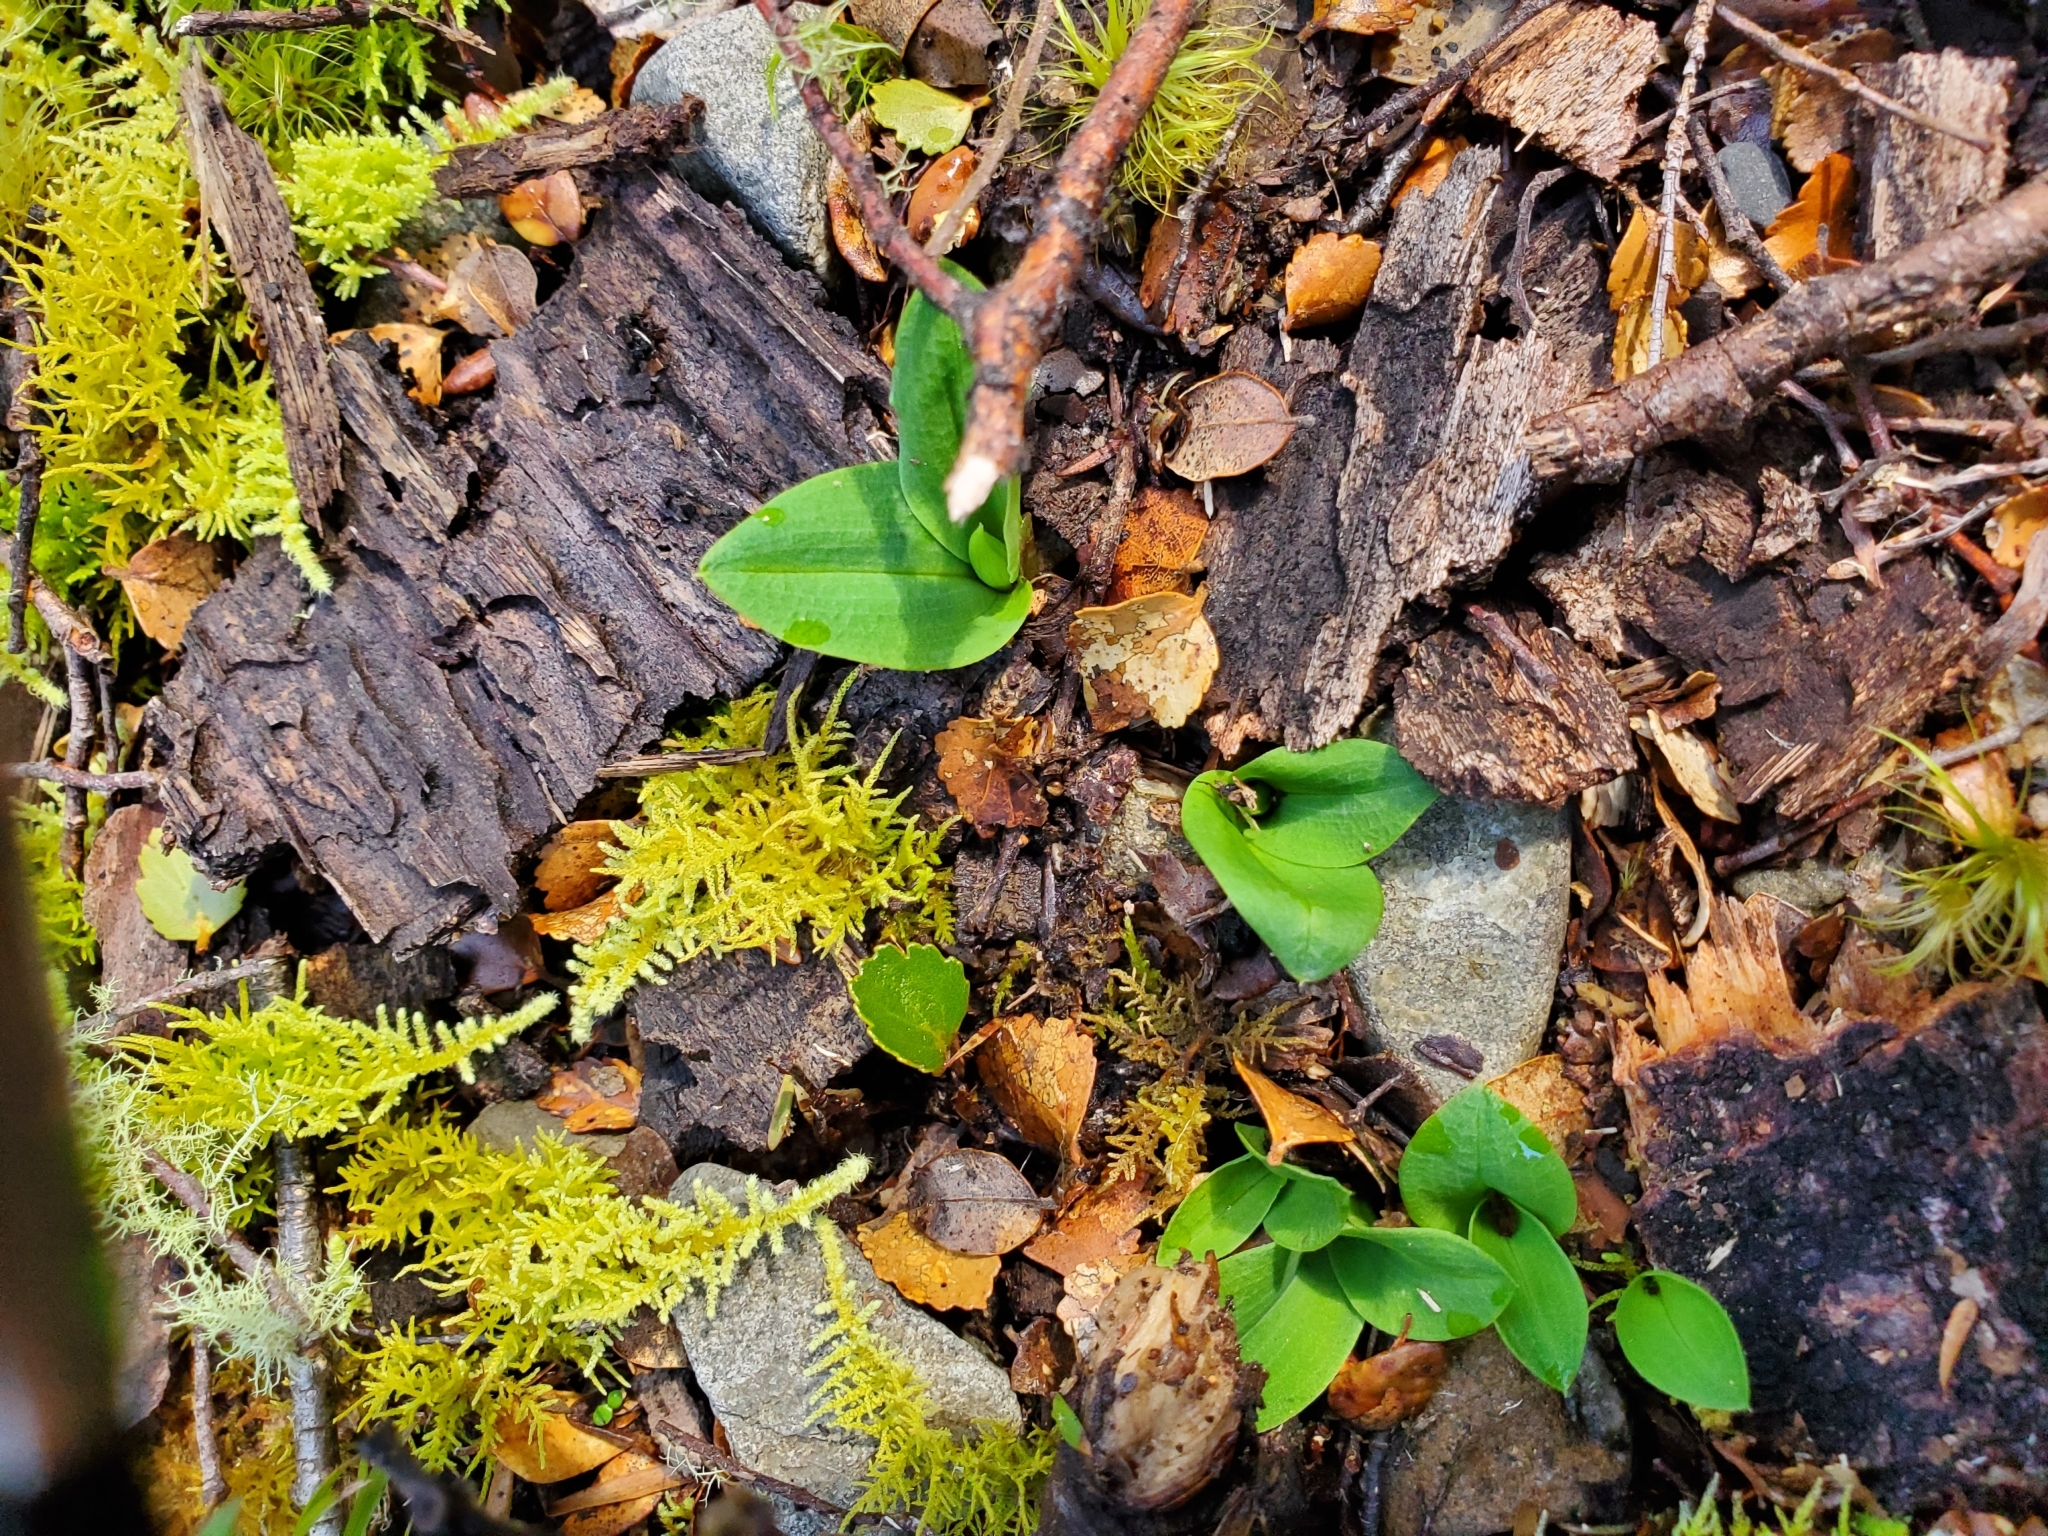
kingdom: Plantae
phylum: Tracheophyta
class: Liliopsida
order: Asparagales
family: Orchidaceae
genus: Chiloglottis
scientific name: Chiloglottis cornuta
